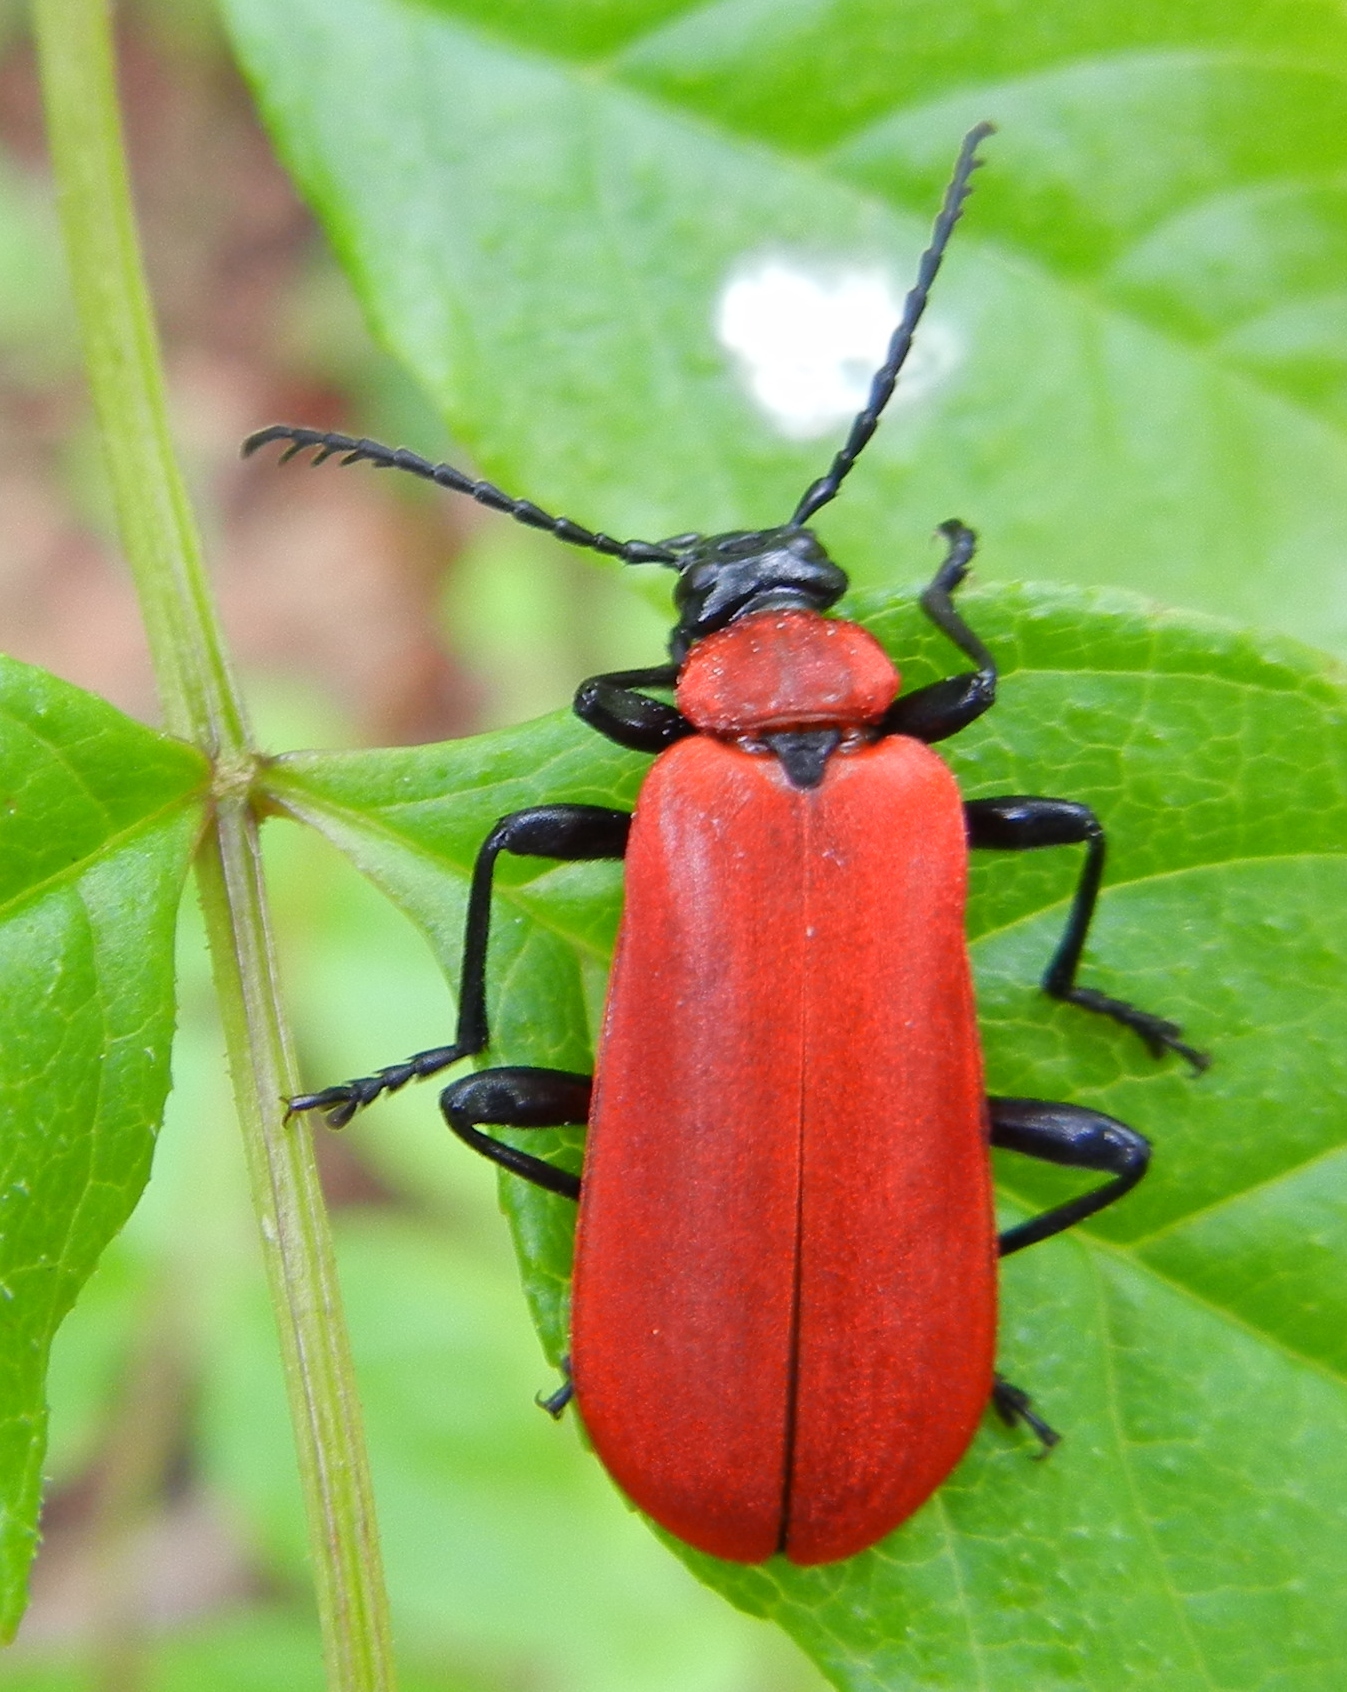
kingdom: Animalia
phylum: Arthropoda
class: Insecta
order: Coleoptera
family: Pyrochroidae
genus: Pyrochroa
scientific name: Pyrochroa coccinea
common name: Black-headed cardinal beetle
